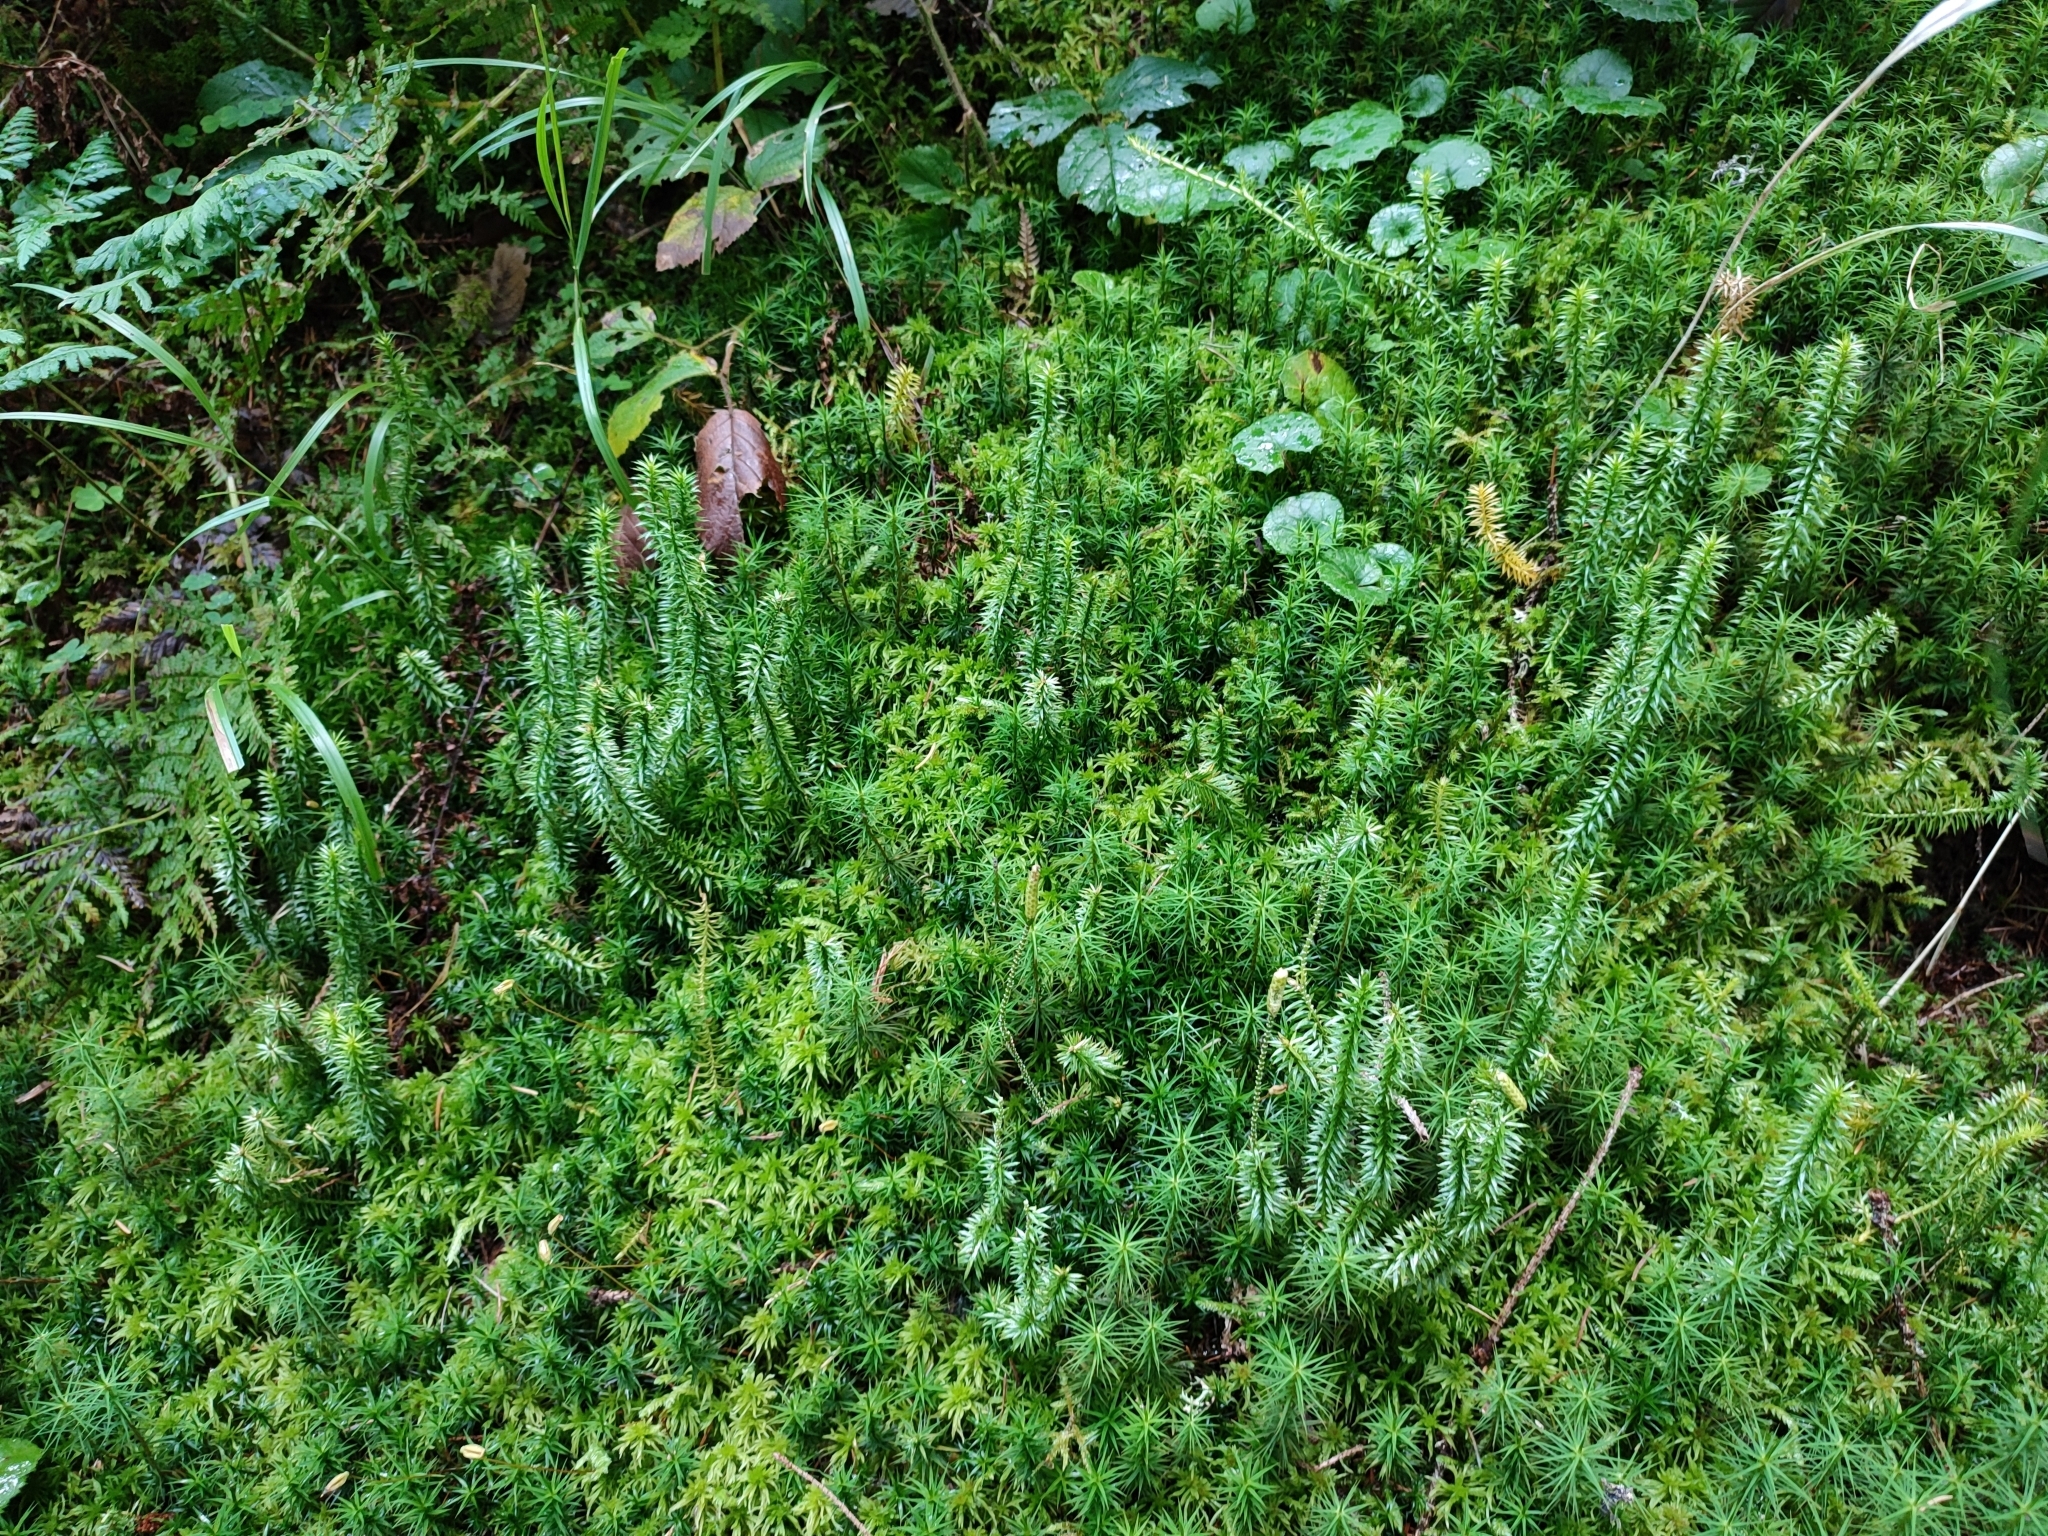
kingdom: Plantae
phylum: Tracheophyta
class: Lycopodiopsida
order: Lycopodiales
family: Lycopodiaceae
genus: Spinulum
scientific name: Spinulum annotinum
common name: Interrupted club-moss
